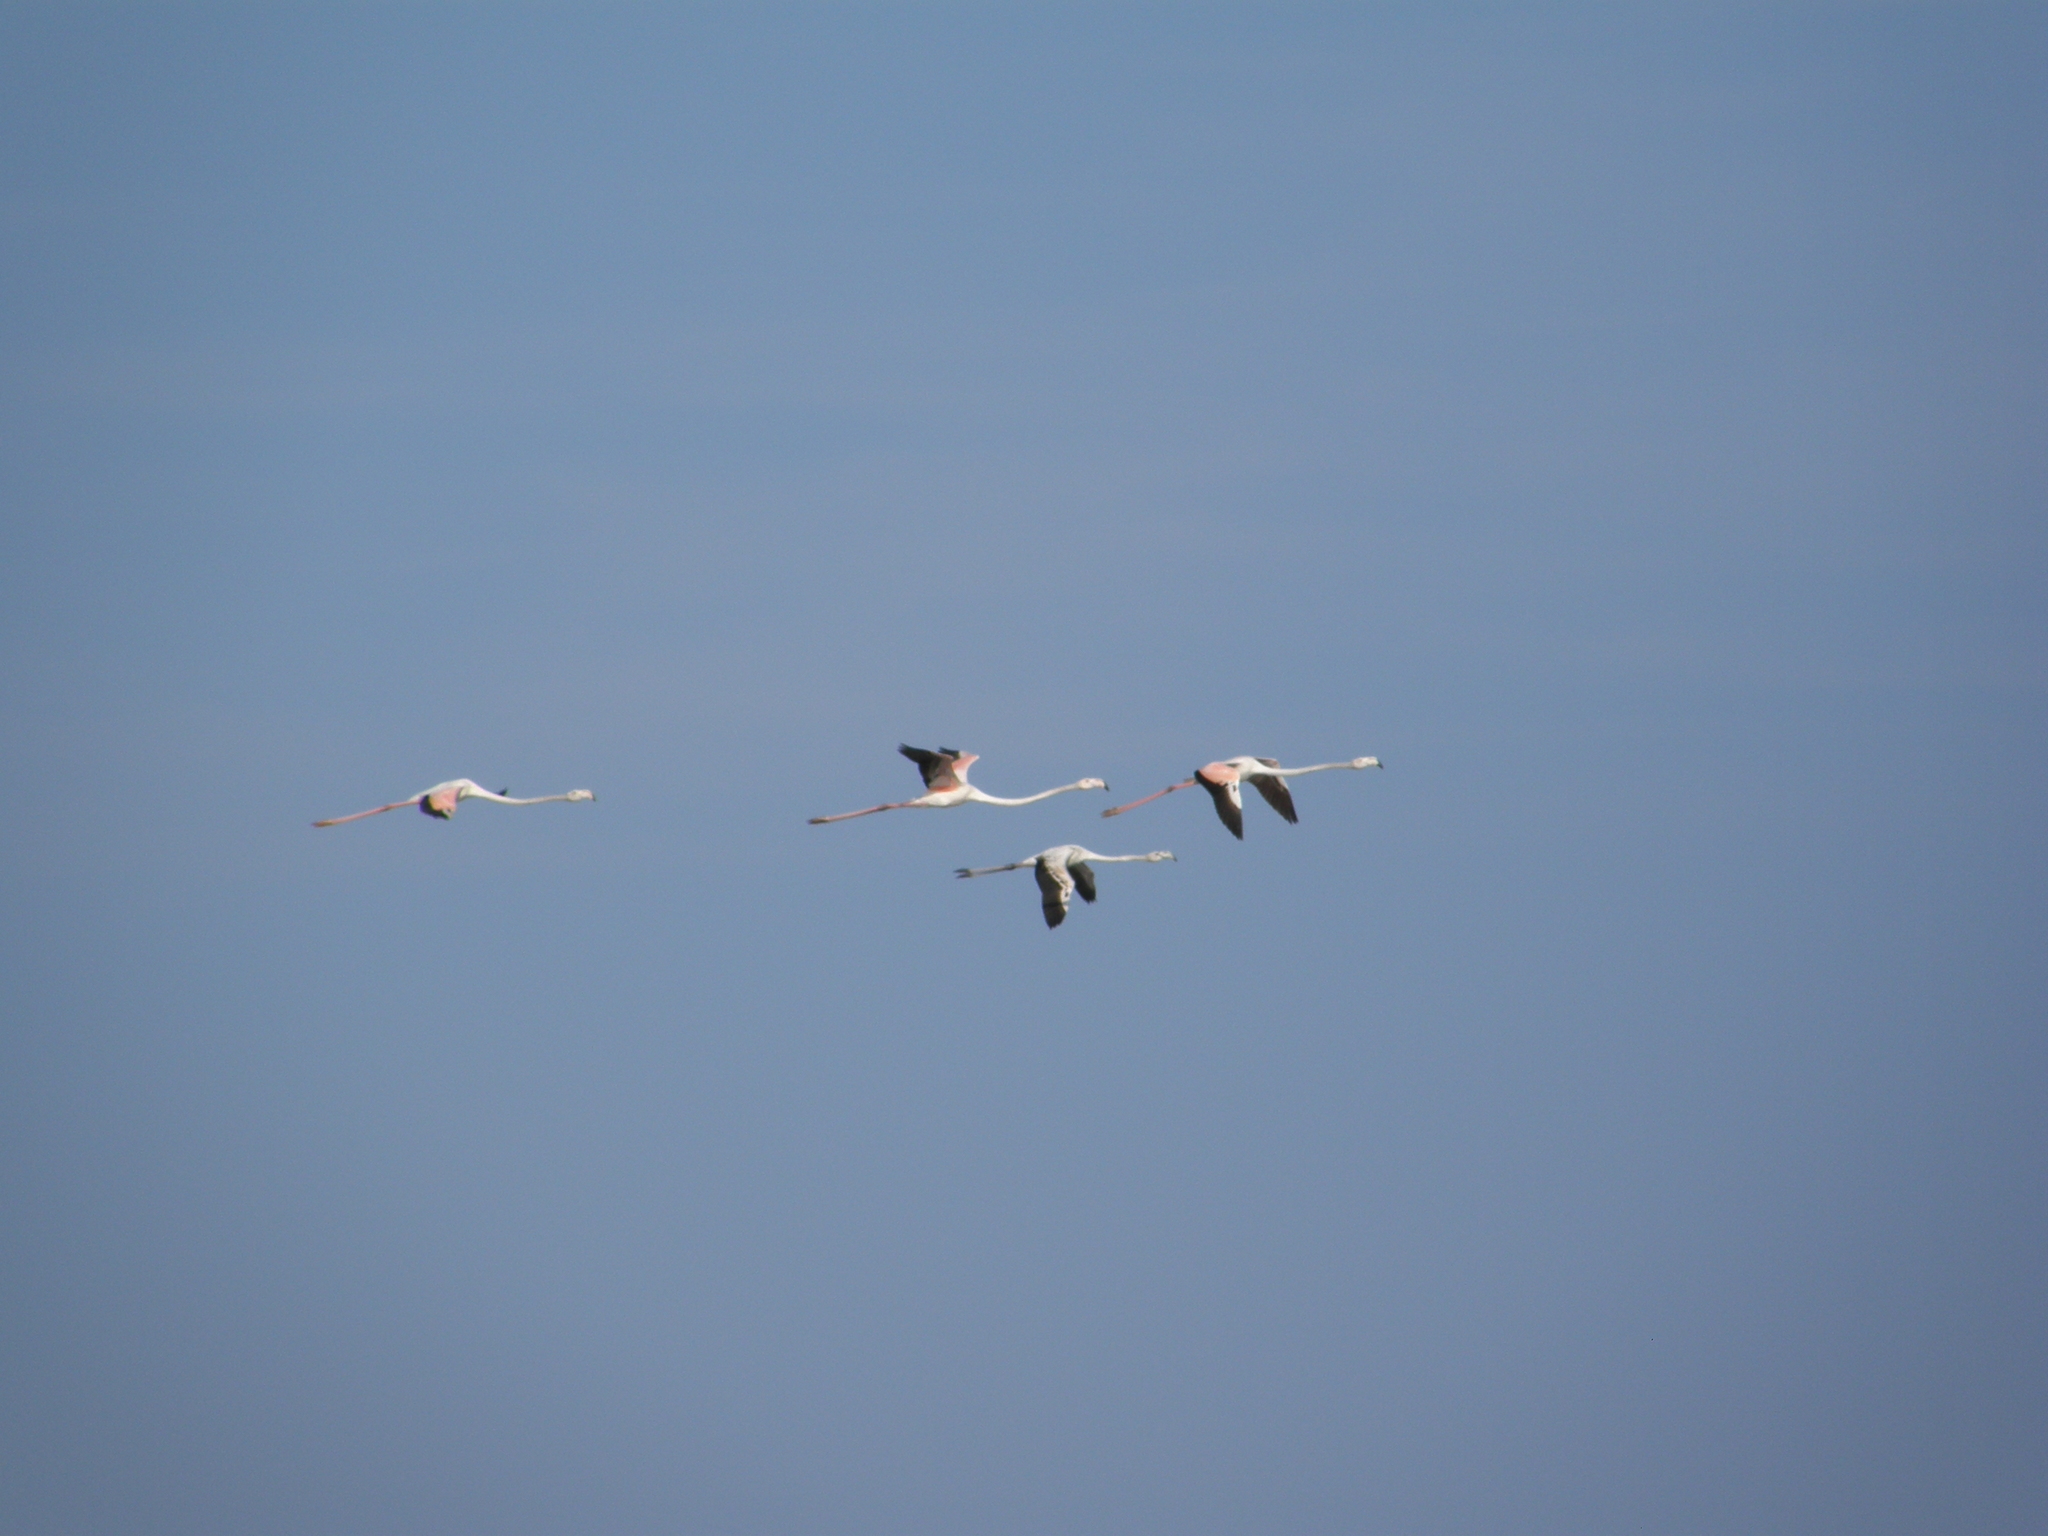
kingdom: Animalia
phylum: Chordata
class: Aves
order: Phoenicopteriformes
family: Phoenicopteridae
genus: Phoenicopterus
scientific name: Phoenicopterus roseus
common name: Greater flamingo
